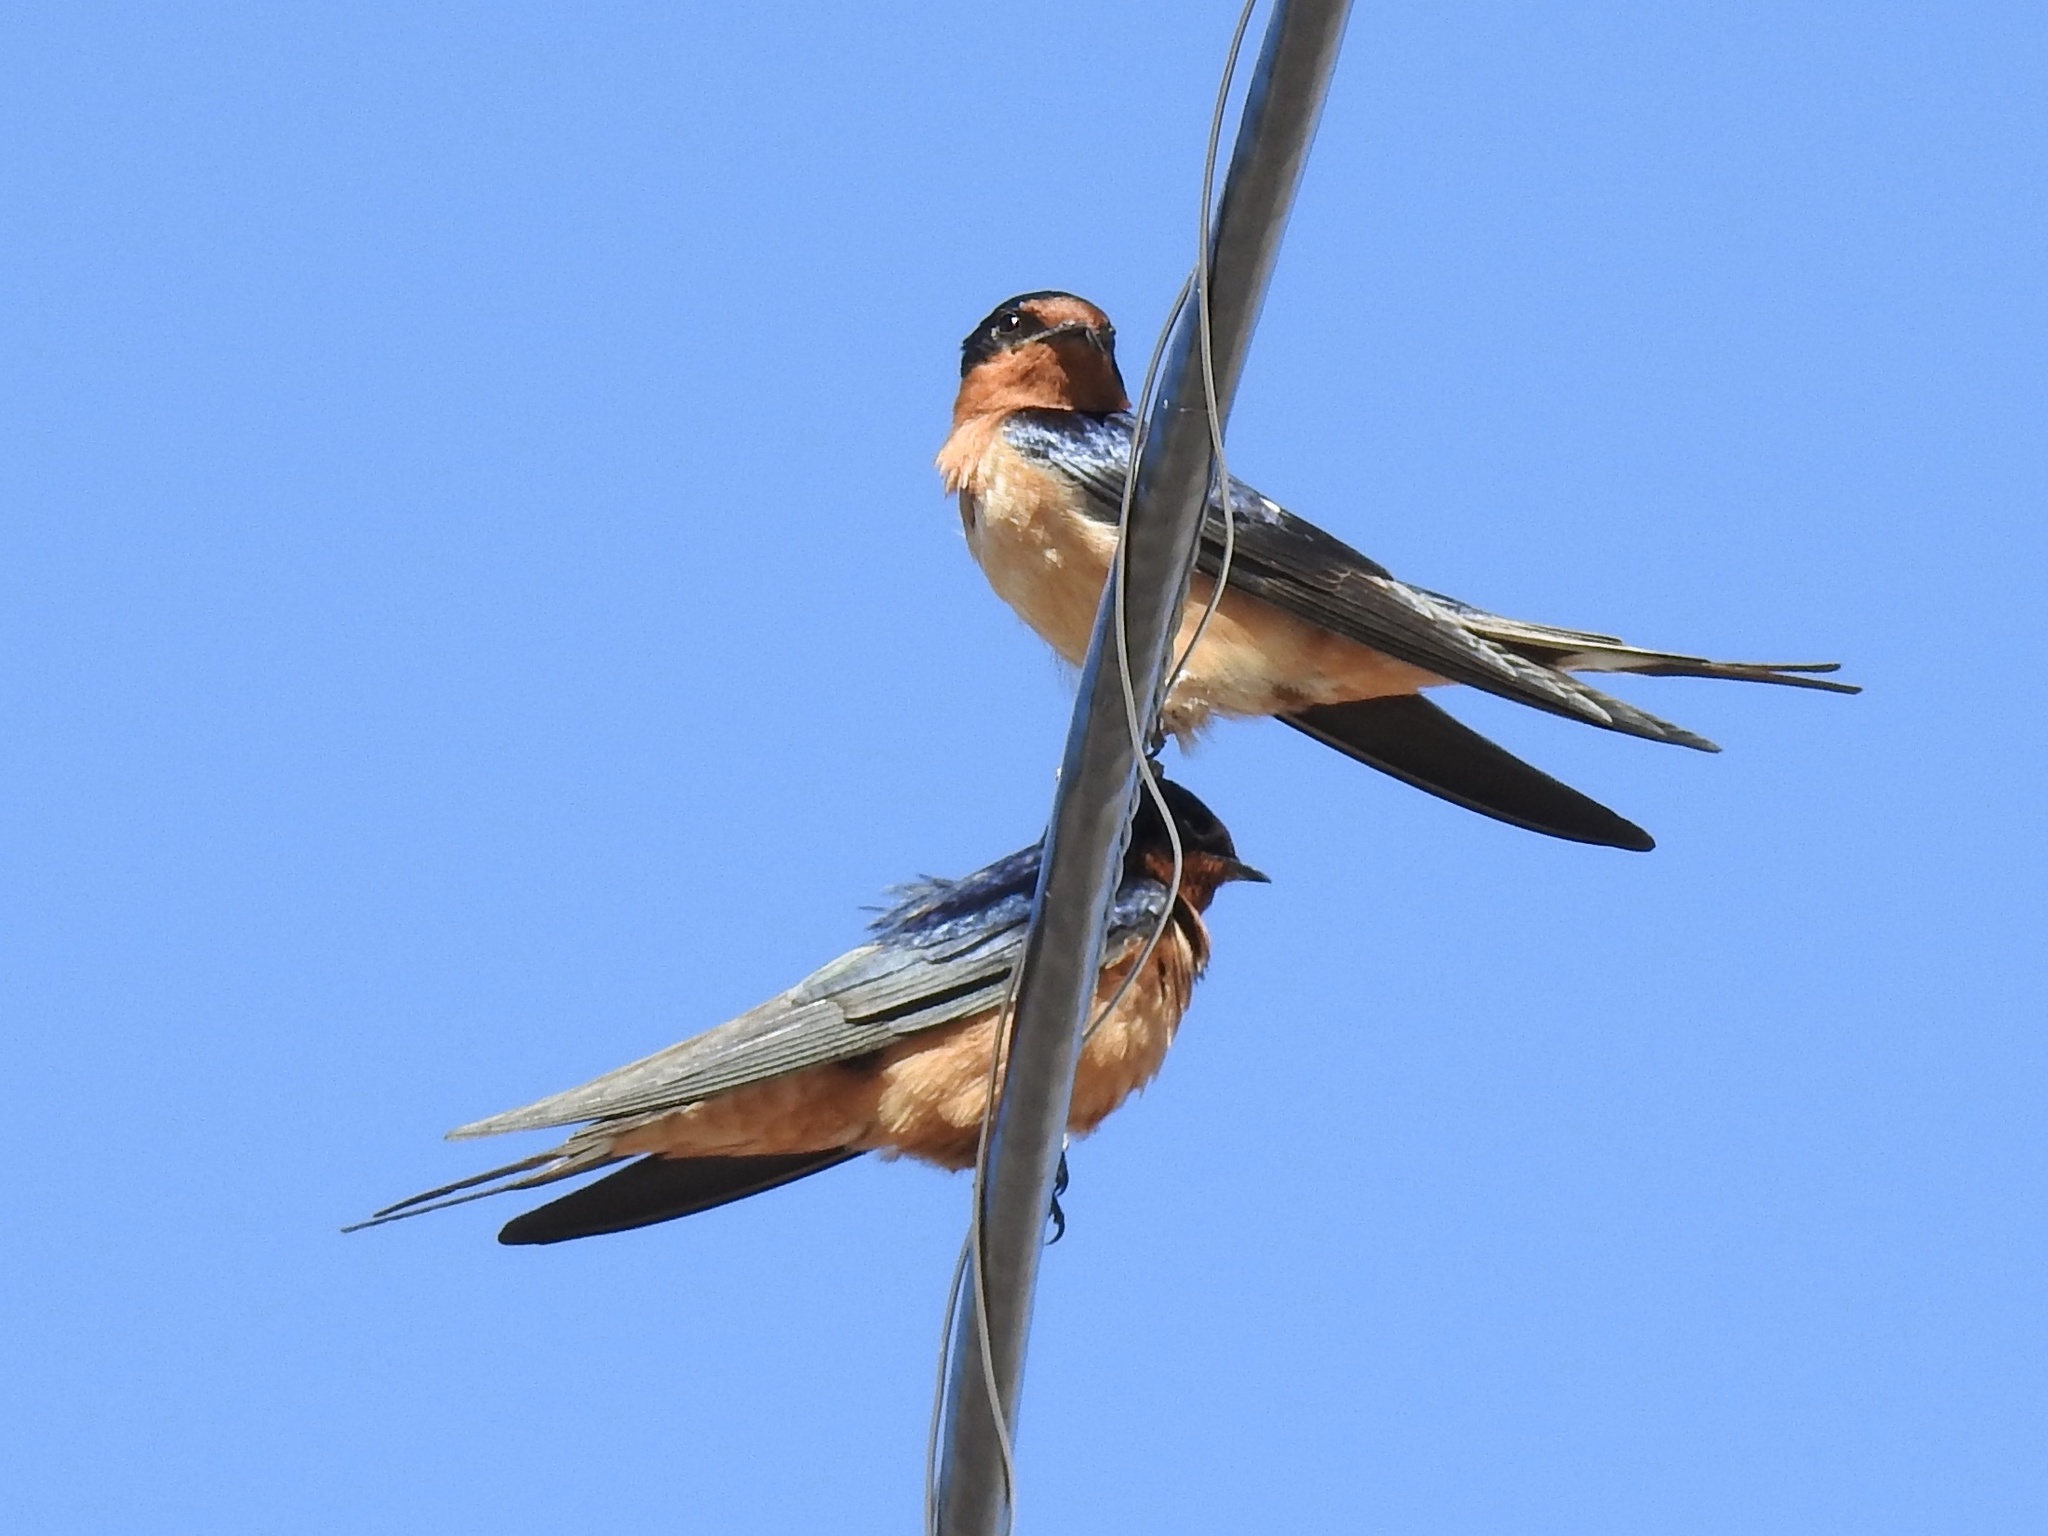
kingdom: Animalia
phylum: Chordata
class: Aves
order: Passeriformes
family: Hirundinidae
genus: Hirundo
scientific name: Hirundo rustica
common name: Barn swallow
